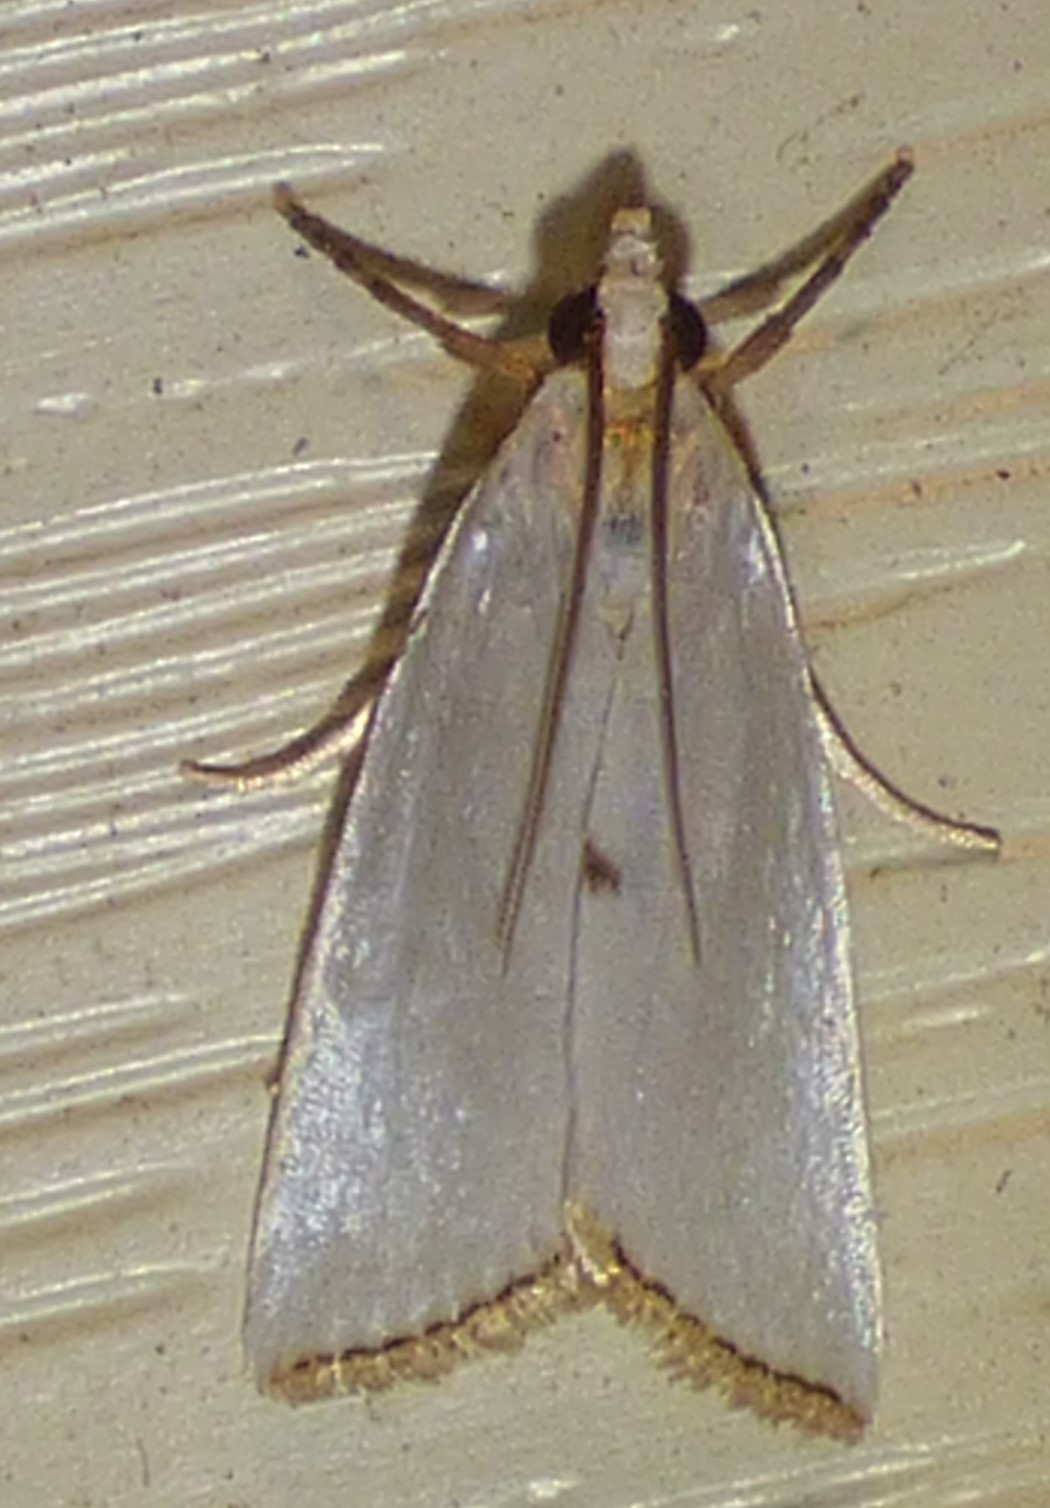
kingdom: Animalia
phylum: Arthropoda
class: Insecta
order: Lepidoptera
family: Crambidae
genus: Argyria
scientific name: Argyria nivalis
